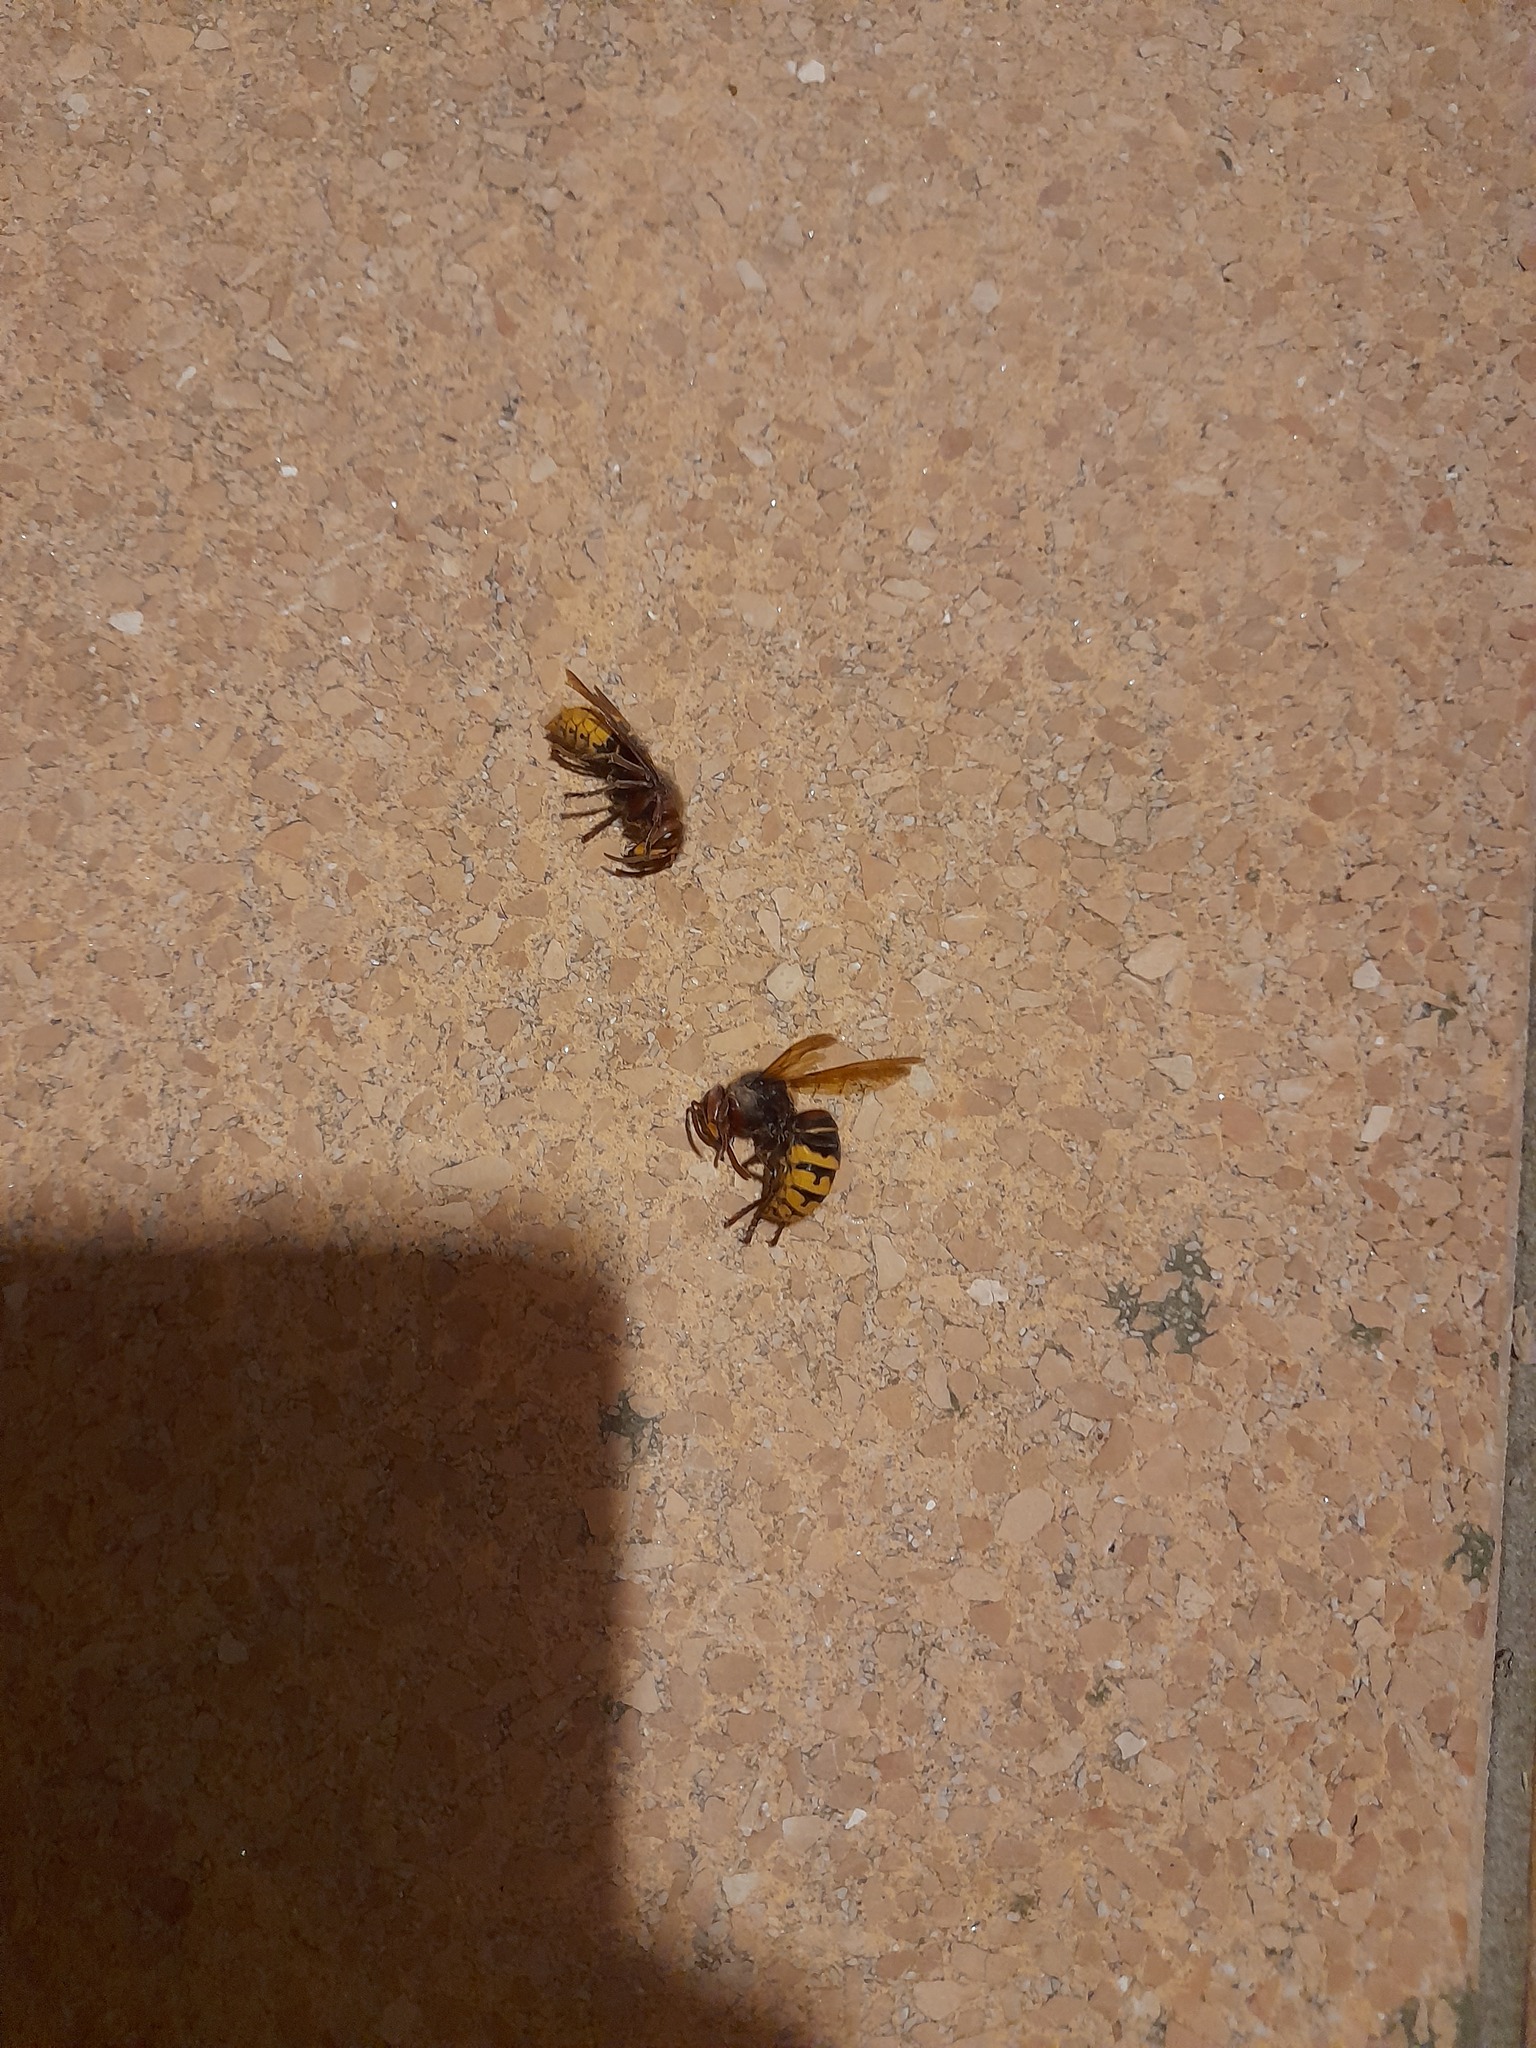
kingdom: Animalia
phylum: Arthropoda
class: Insecta
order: Hymenoptera
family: Vespidae
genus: Vespa
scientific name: Vespa crabro
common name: Hornet
